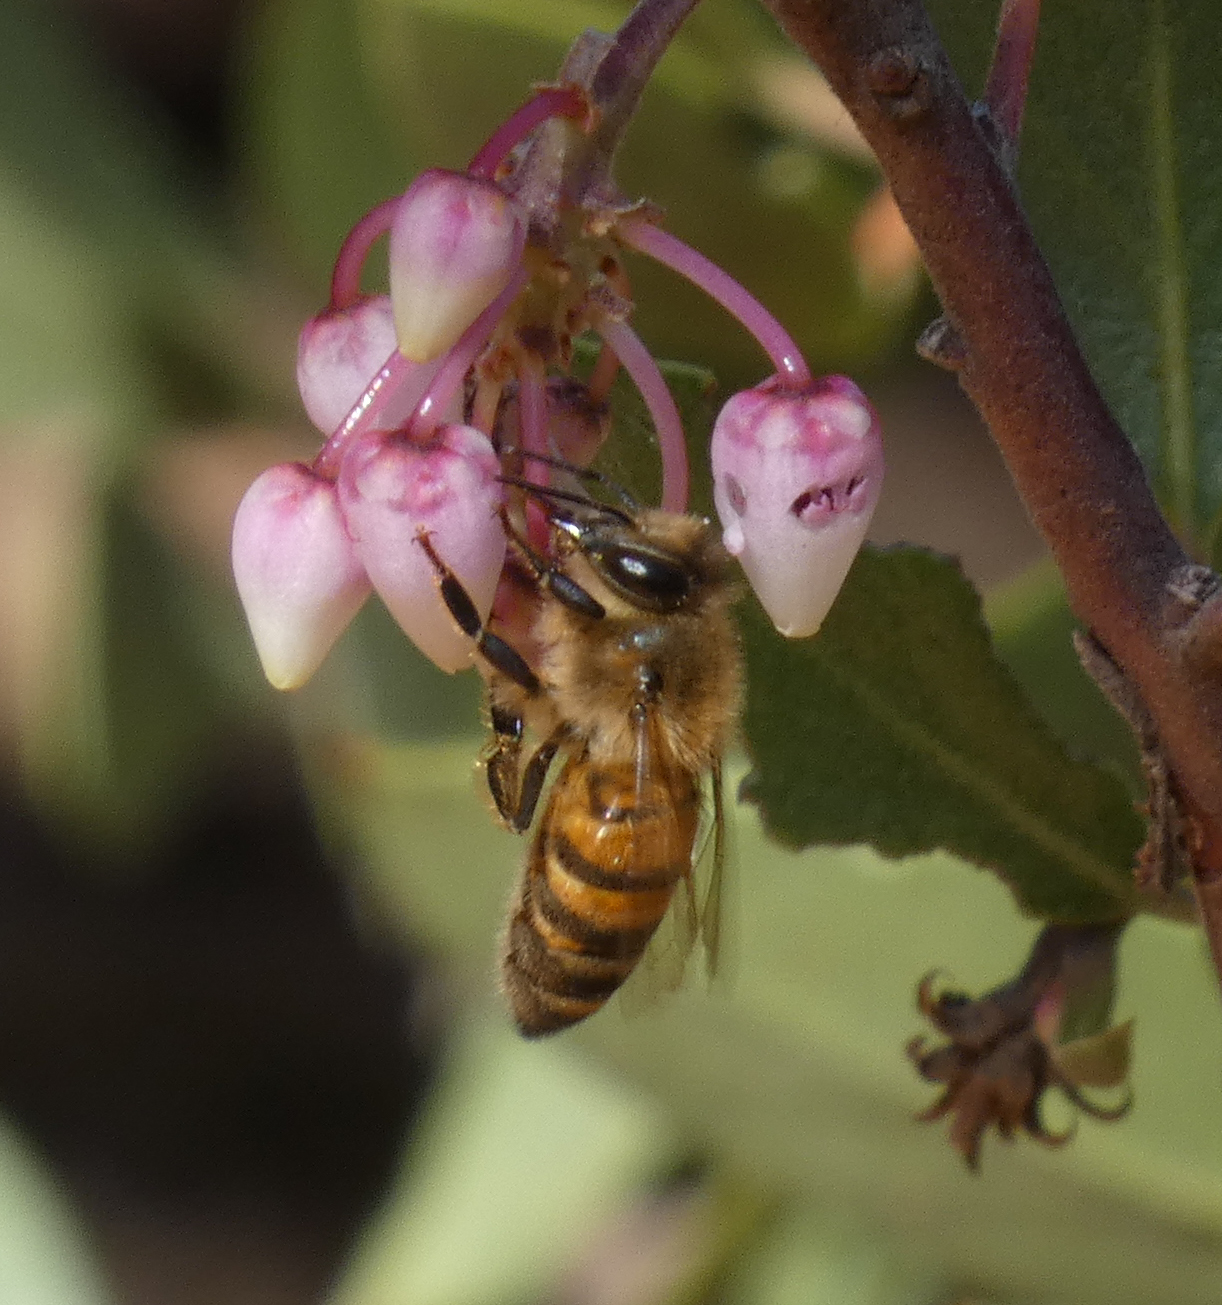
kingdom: Animalia
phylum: Arthropoda
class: Insecta
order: Hymenoptera
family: Apidae
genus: Apis
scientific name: Apis mellifera
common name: Honey bee
